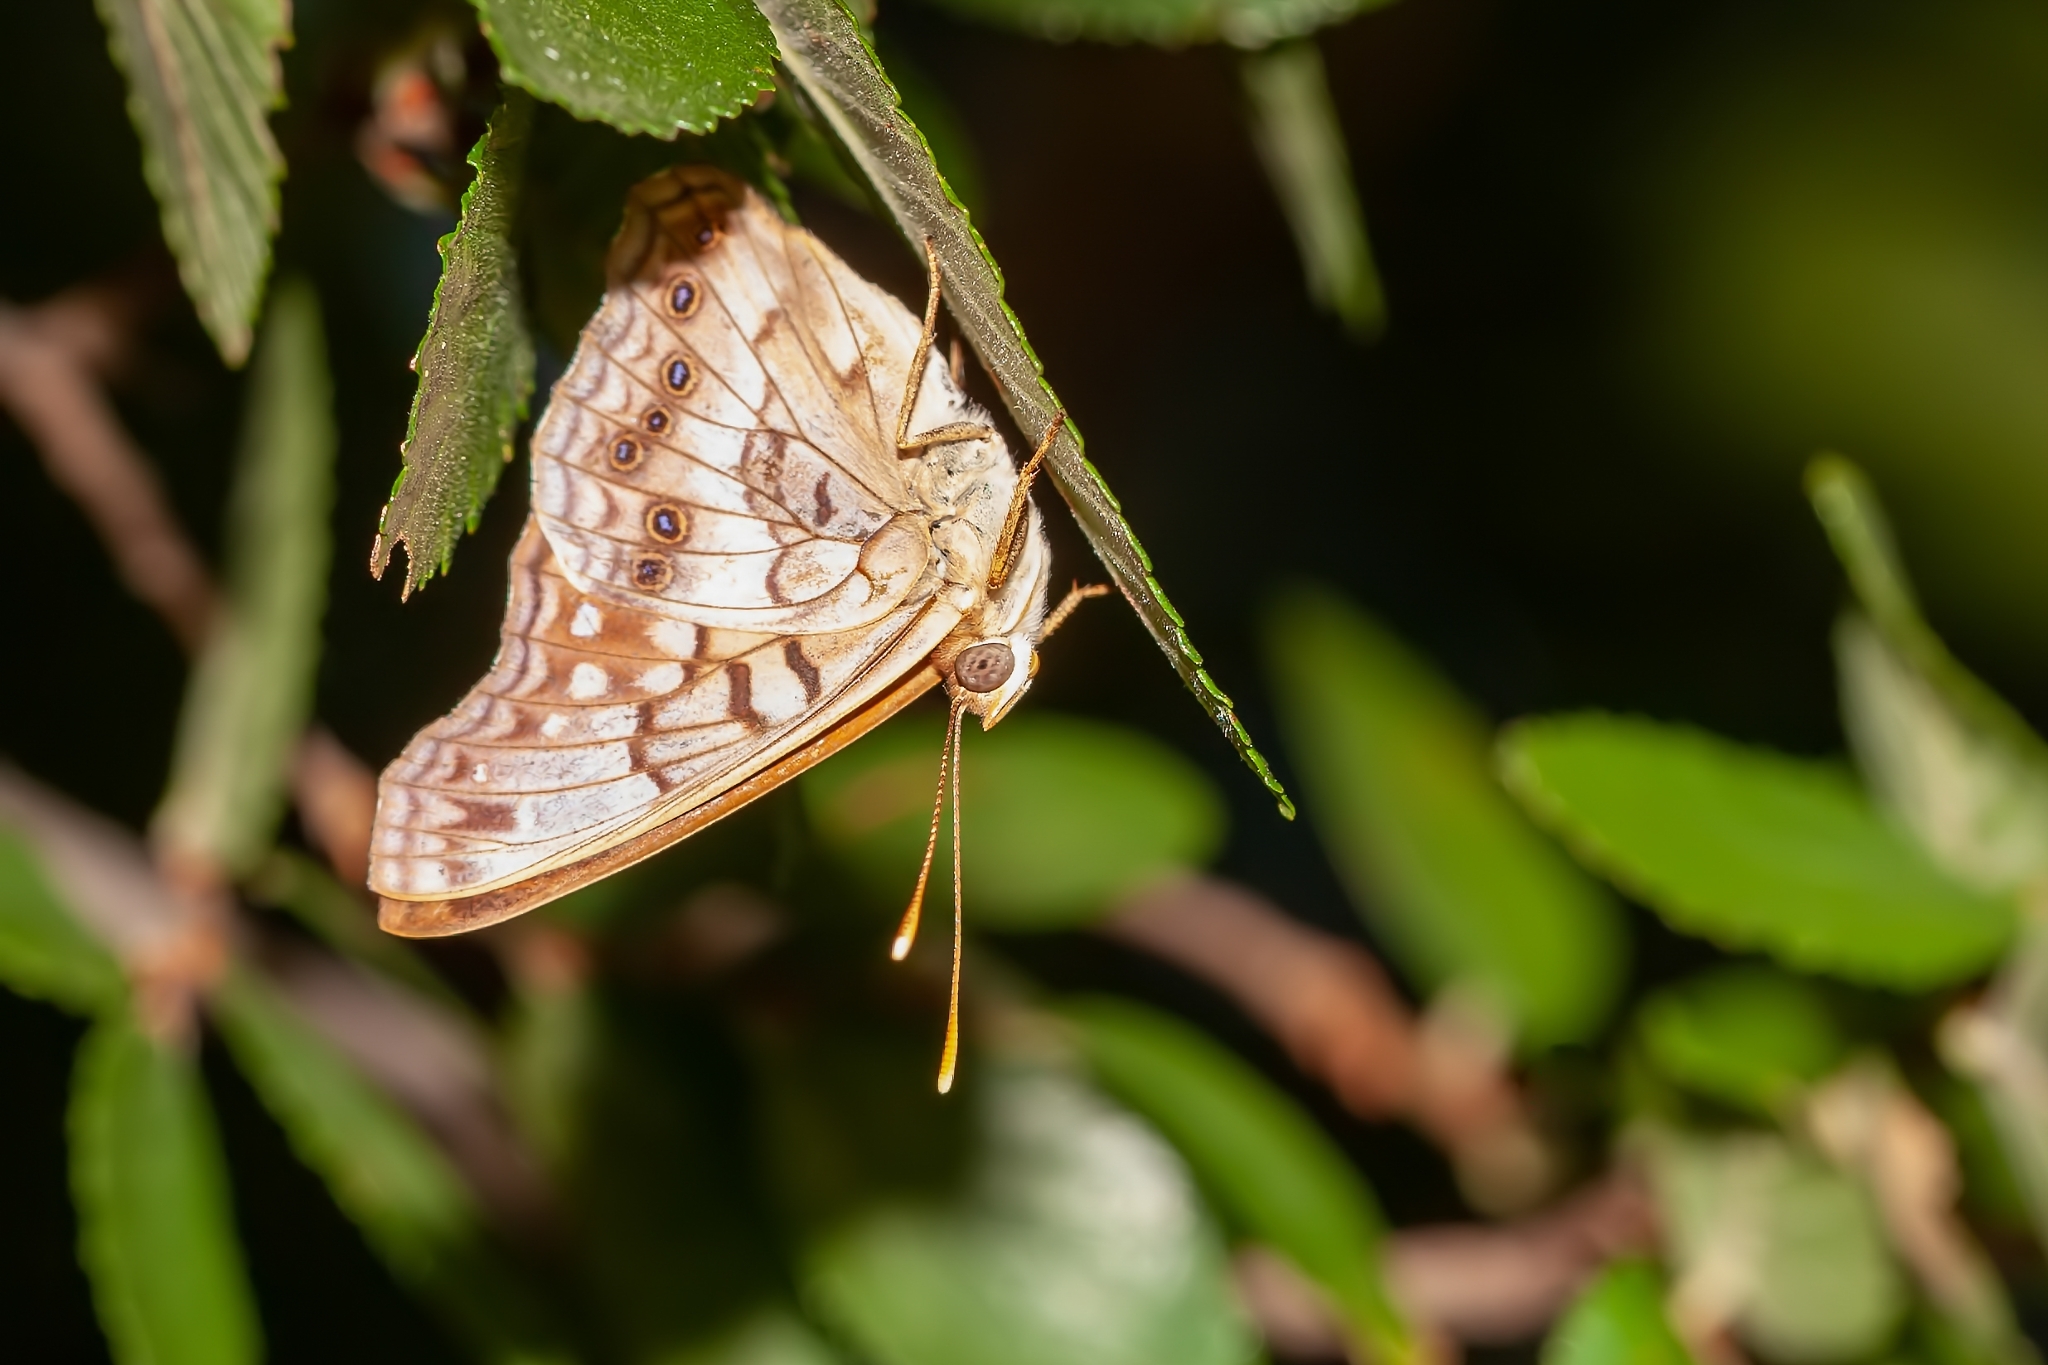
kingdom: Animalia
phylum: Arthropoda
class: Insecta
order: Lepidoptera
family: Nymphalidae
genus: Asterocampa
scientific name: Asterocampa celtis
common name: Hackberry emperor
